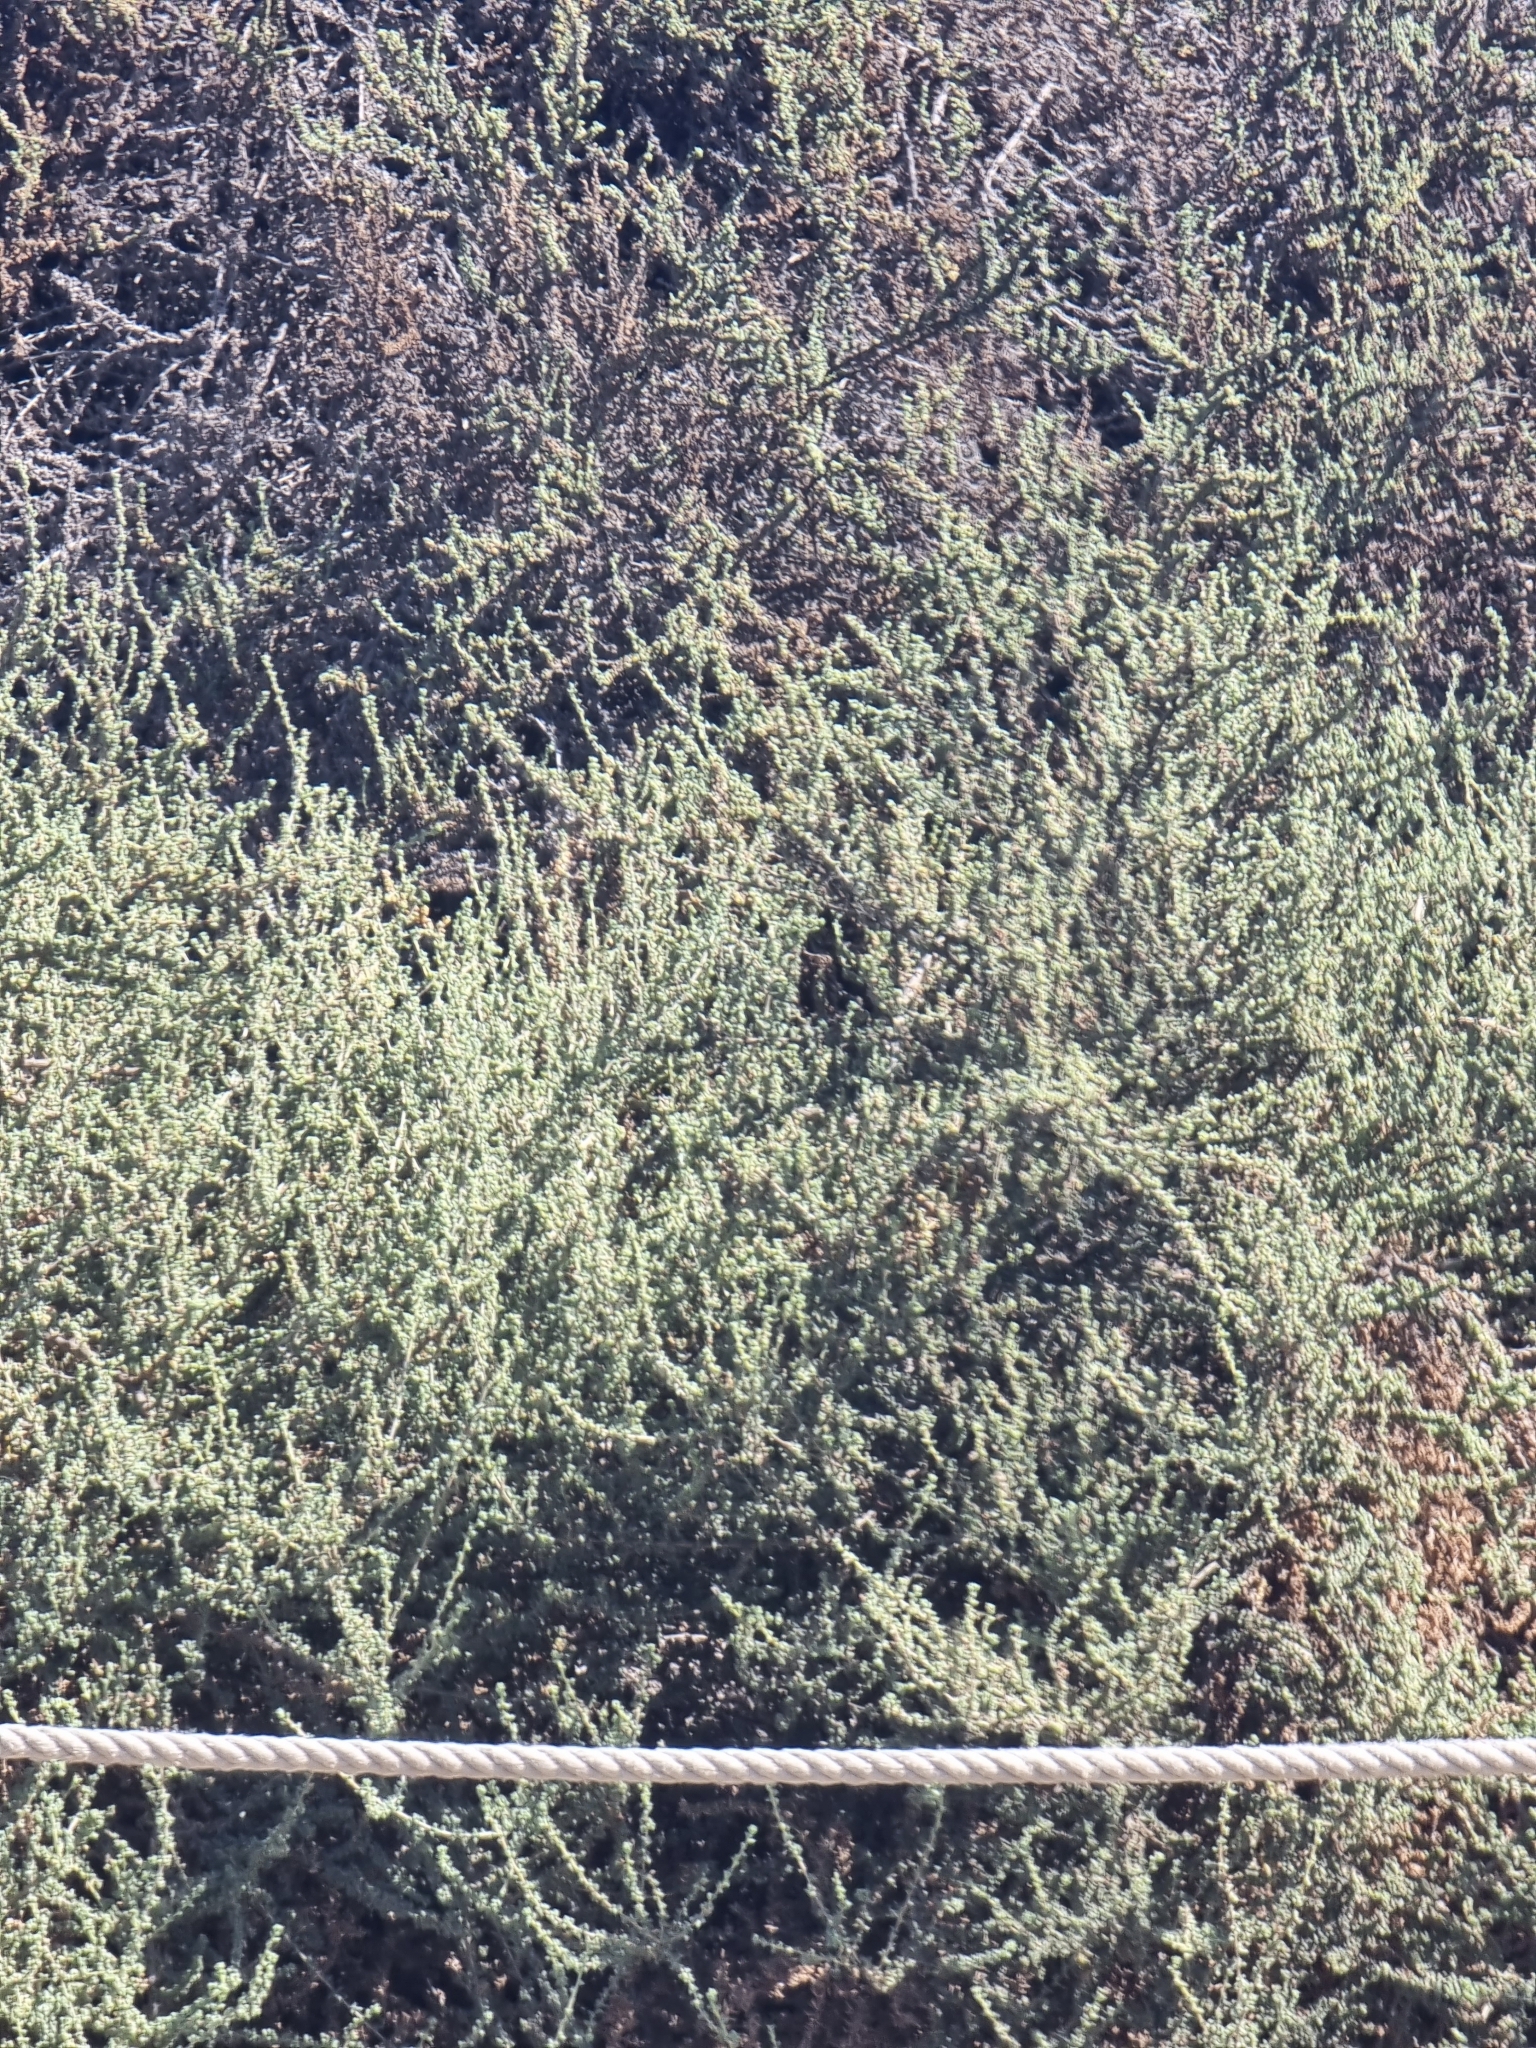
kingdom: Plantae
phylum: Tracheophyta
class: Magnoliopsida
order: Caryophyllales
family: Amaranthaceae
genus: Suaeda
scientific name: Suaeda vermiculata
